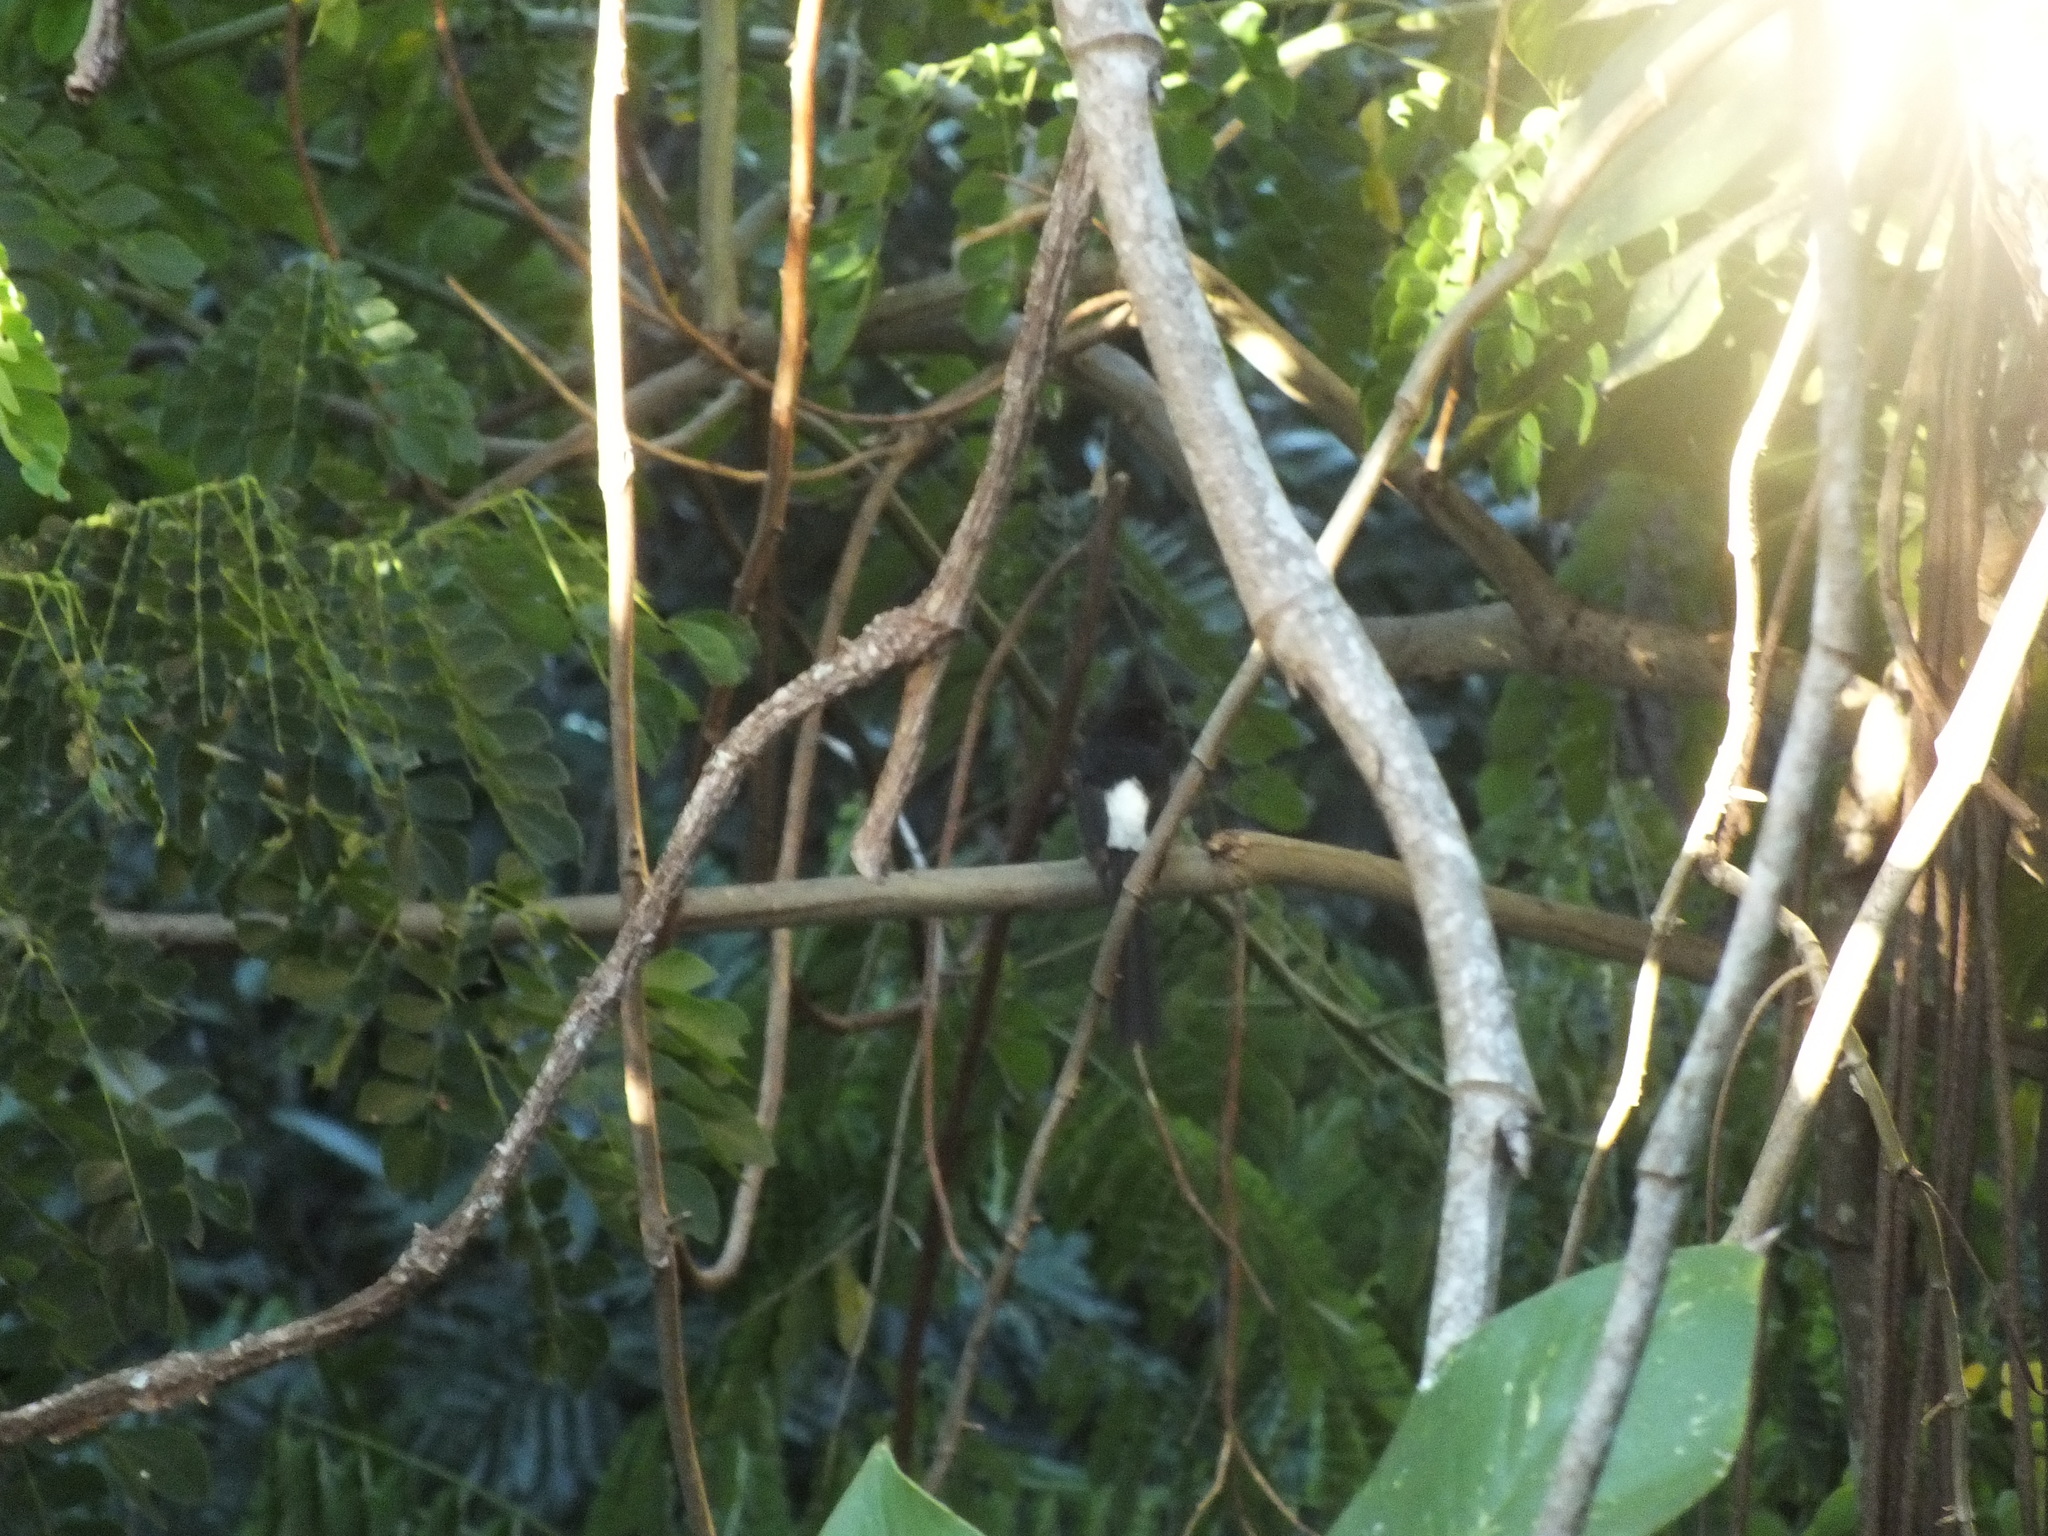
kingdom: Animalia
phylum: Chordata
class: Aves
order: Passeriformes
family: Muscicapidae
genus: Copsychus
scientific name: Copsychus malabaricus
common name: White-rumped shama
